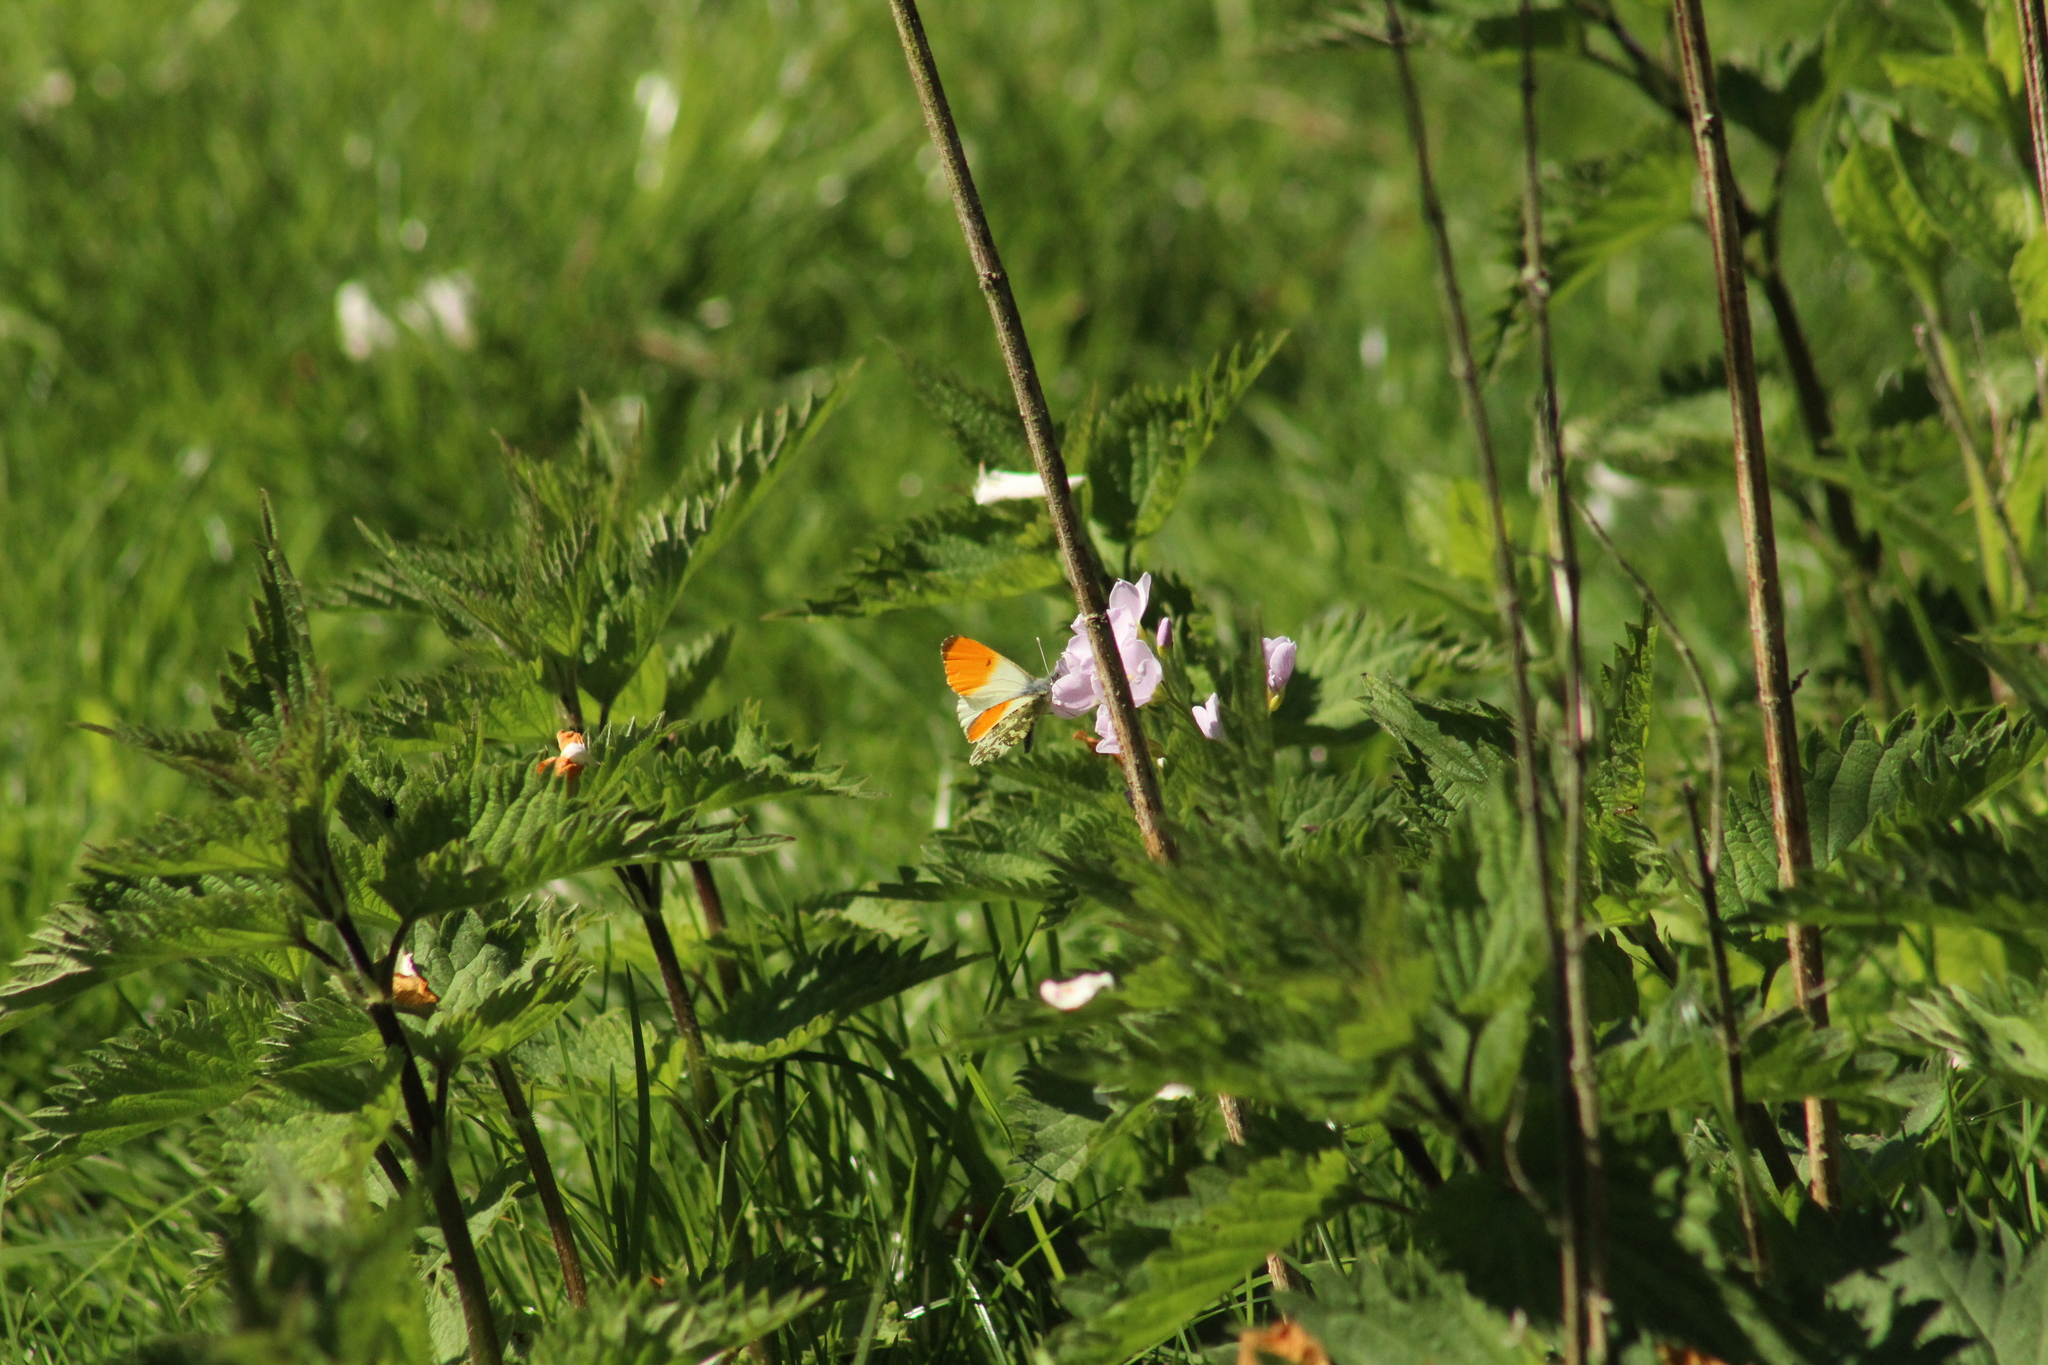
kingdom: Animalia
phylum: Arthropoda
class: Insecta
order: Lepidoptera
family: Pieridae
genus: Anthocharis
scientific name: Anthocharis cardamines
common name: Orange-tip
